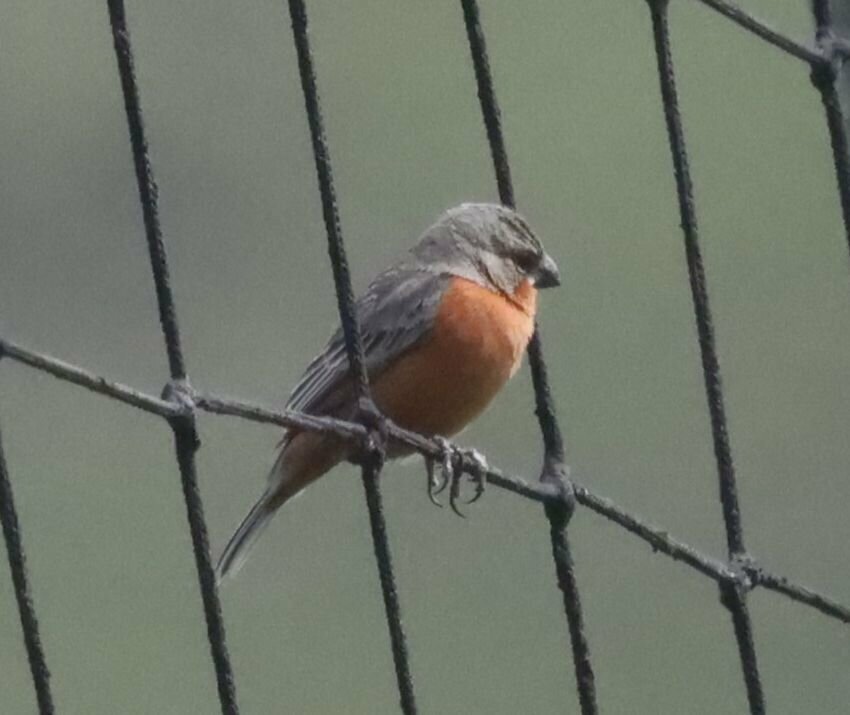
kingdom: Animalia
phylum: Chordata
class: Aves
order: Passeriformes
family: Thraupidae
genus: Sporophila
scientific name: Sporophila minuta
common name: Ruddy-breasted seedeater
